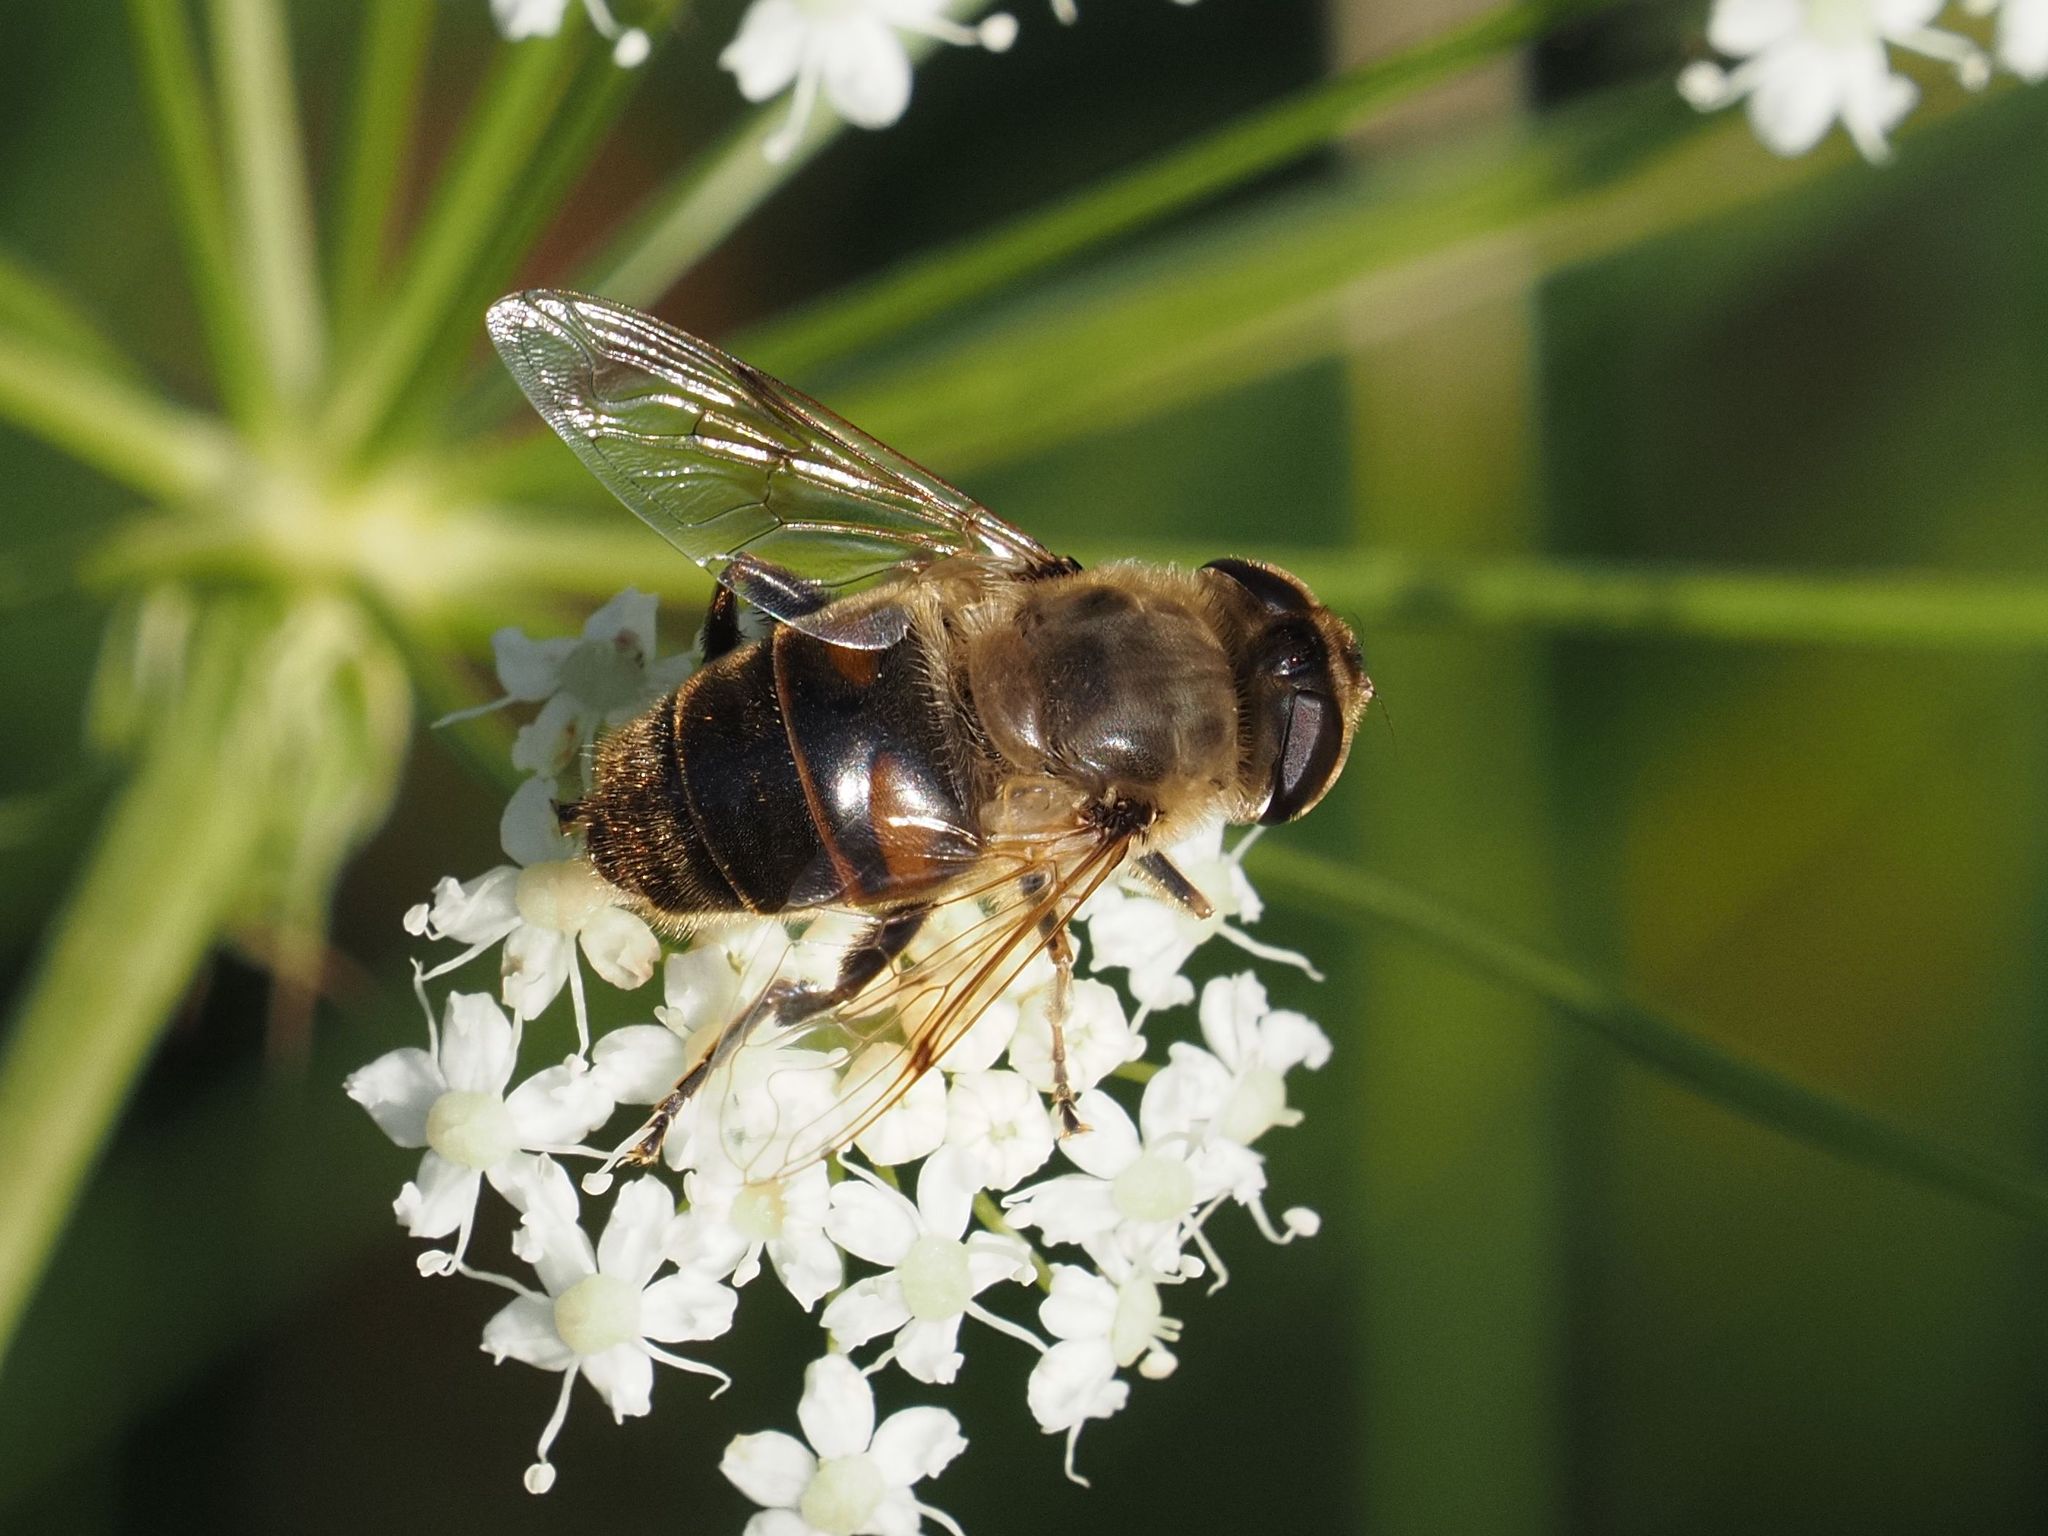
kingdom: Animalia
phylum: Arthropoda
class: Insecta
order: Diptera
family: Syrphidae
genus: Eristalis
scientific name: Eristalis tenax
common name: Drone fly
